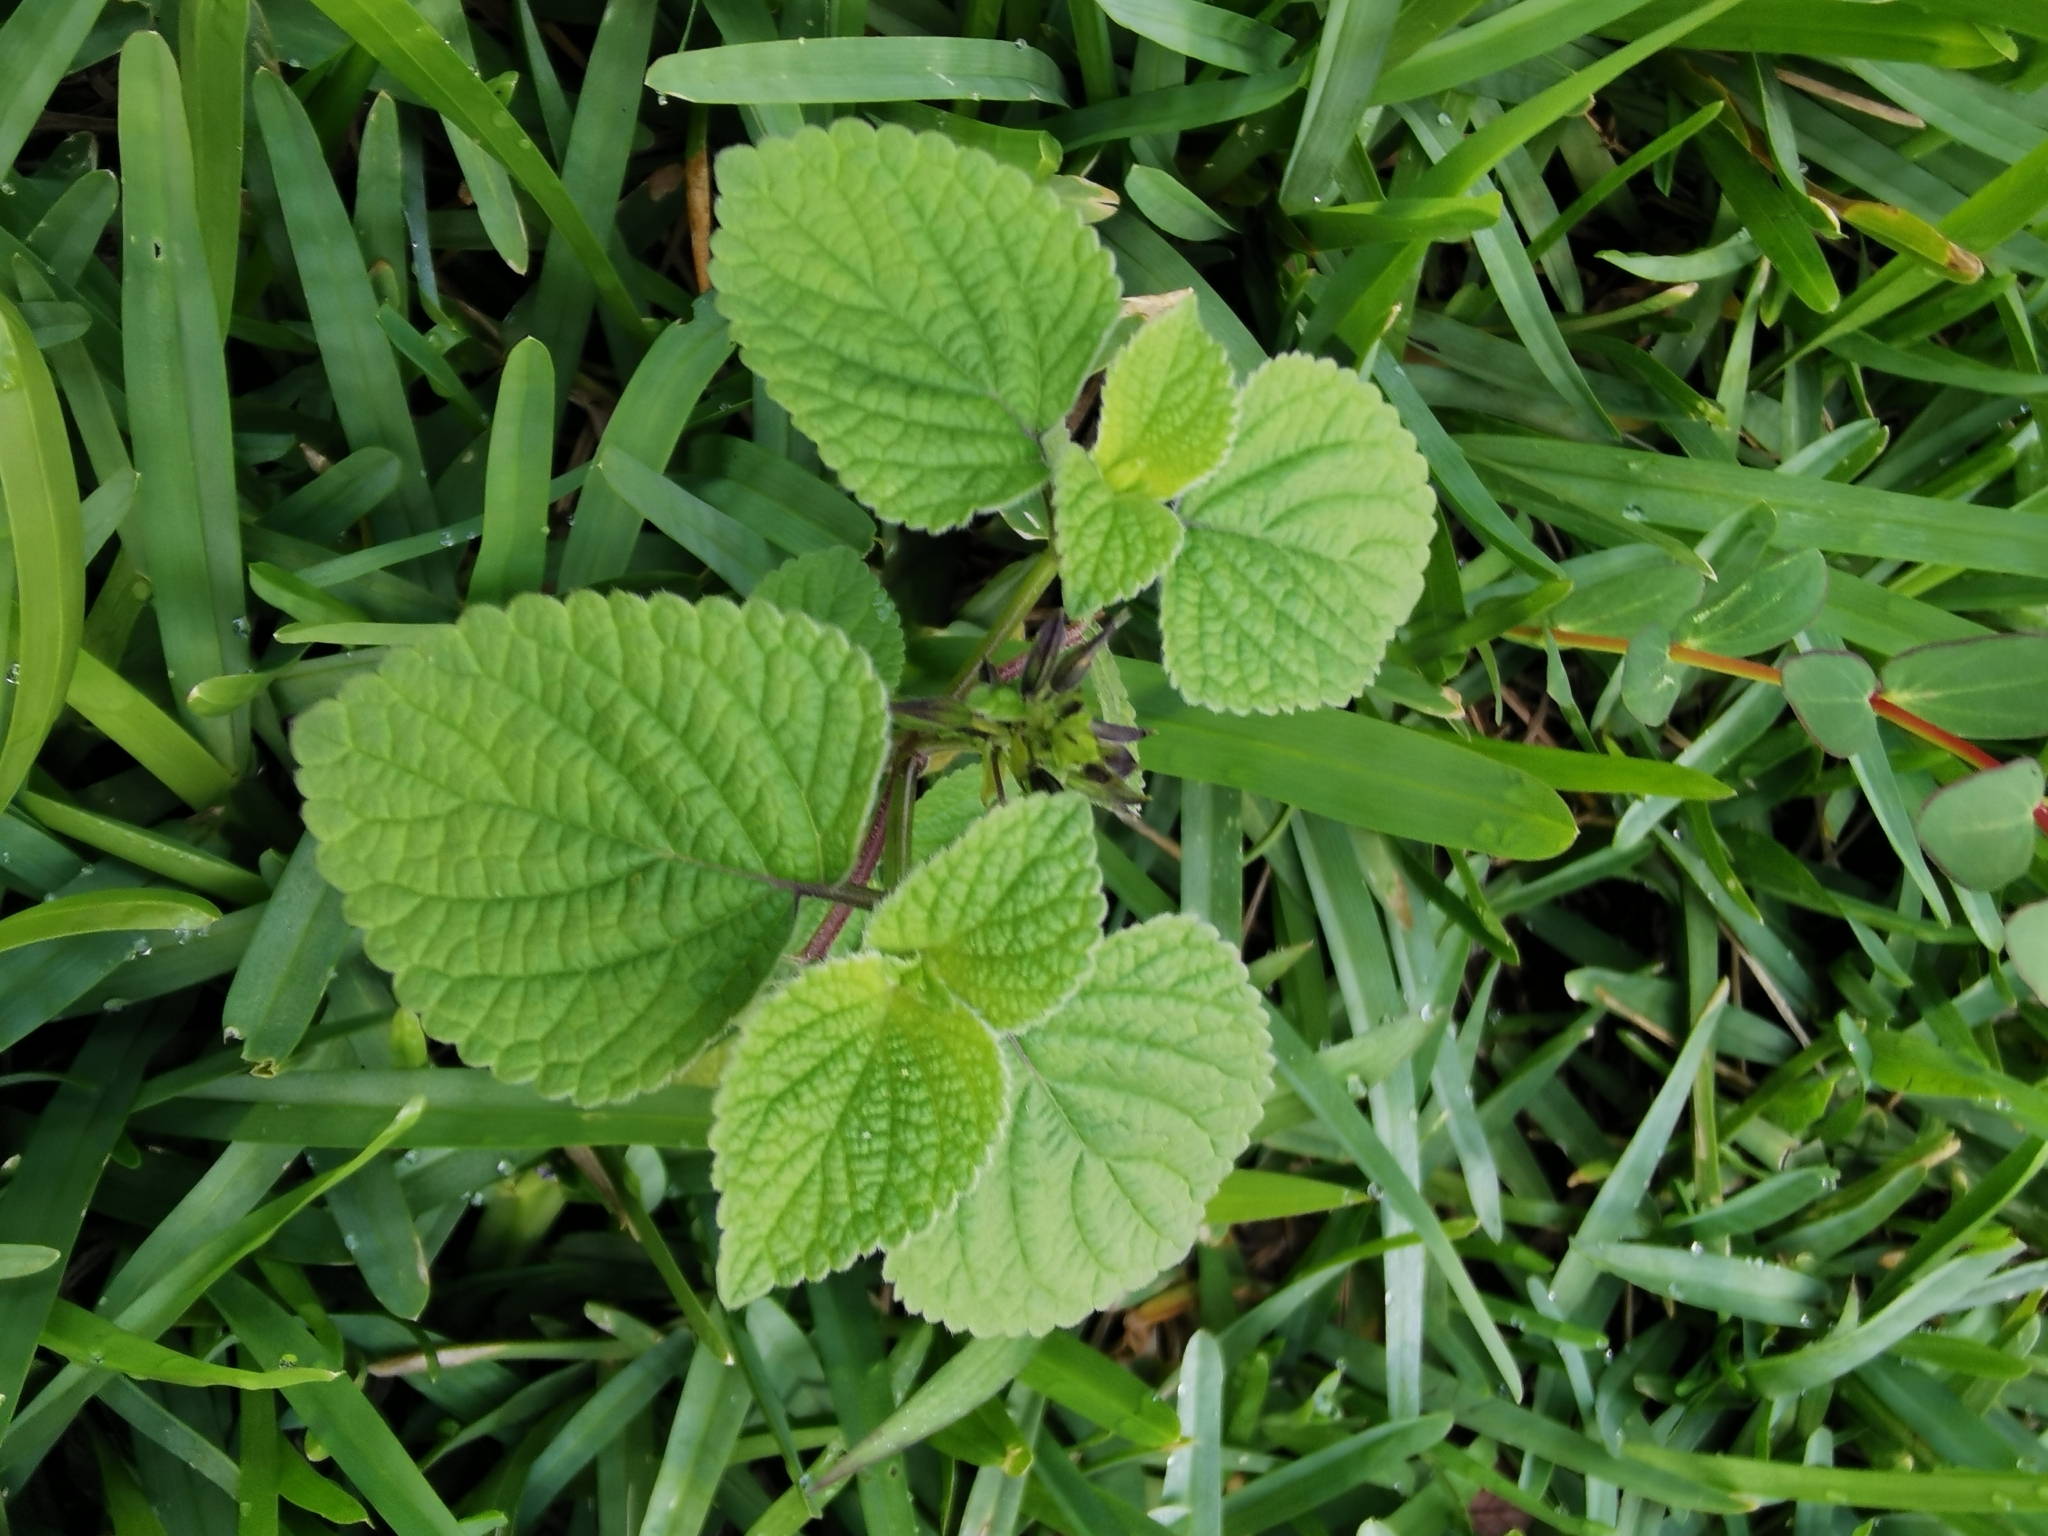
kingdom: Plantae
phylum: Tracheophyta
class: Magnoliopsida
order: Lamiales
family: Lamiaceae
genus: Salvia
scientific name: Salvia tiliifolia
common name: Lindenleaf sage
